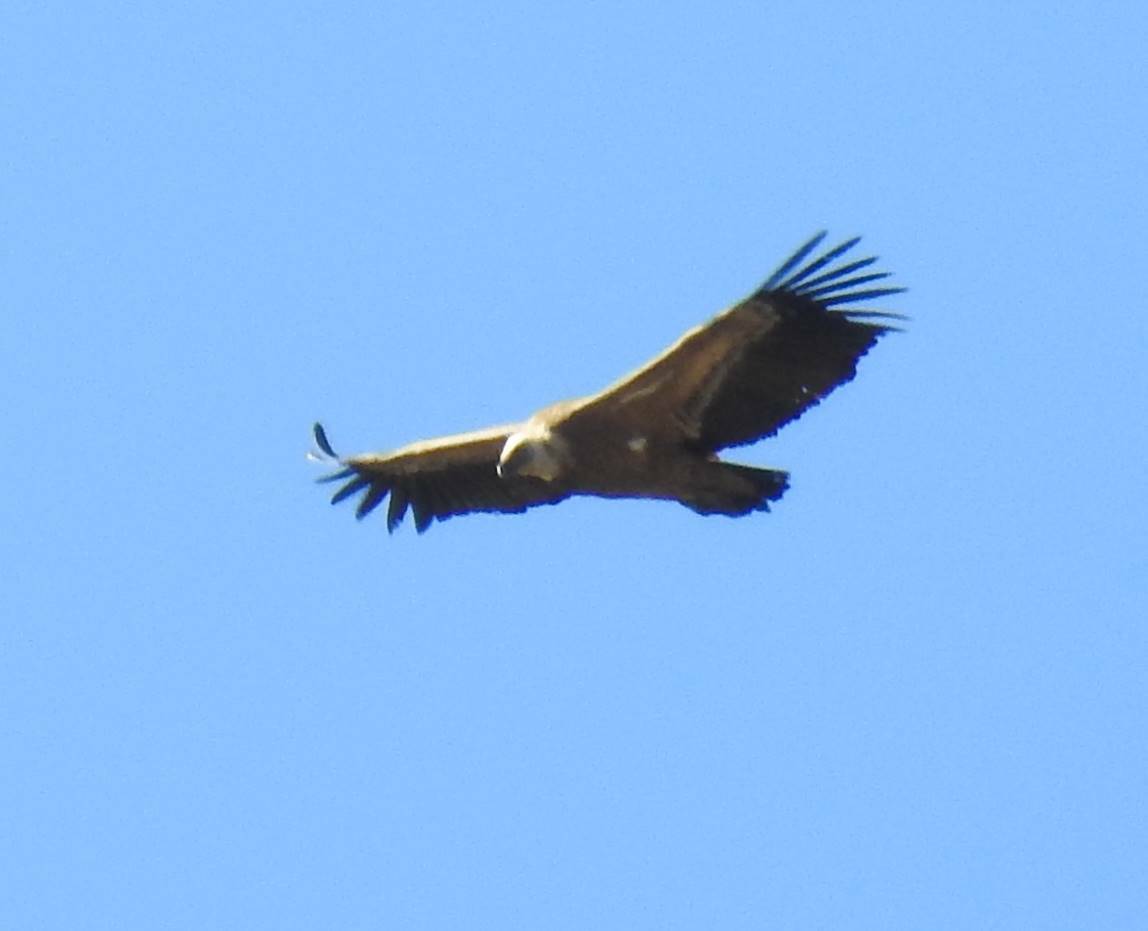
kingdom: Animalia
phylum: Chordata
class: Aves
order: Accipitriformes
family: Accipitridae
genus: Gyps
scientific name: Gyps fulvus
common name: Griffon vulture
